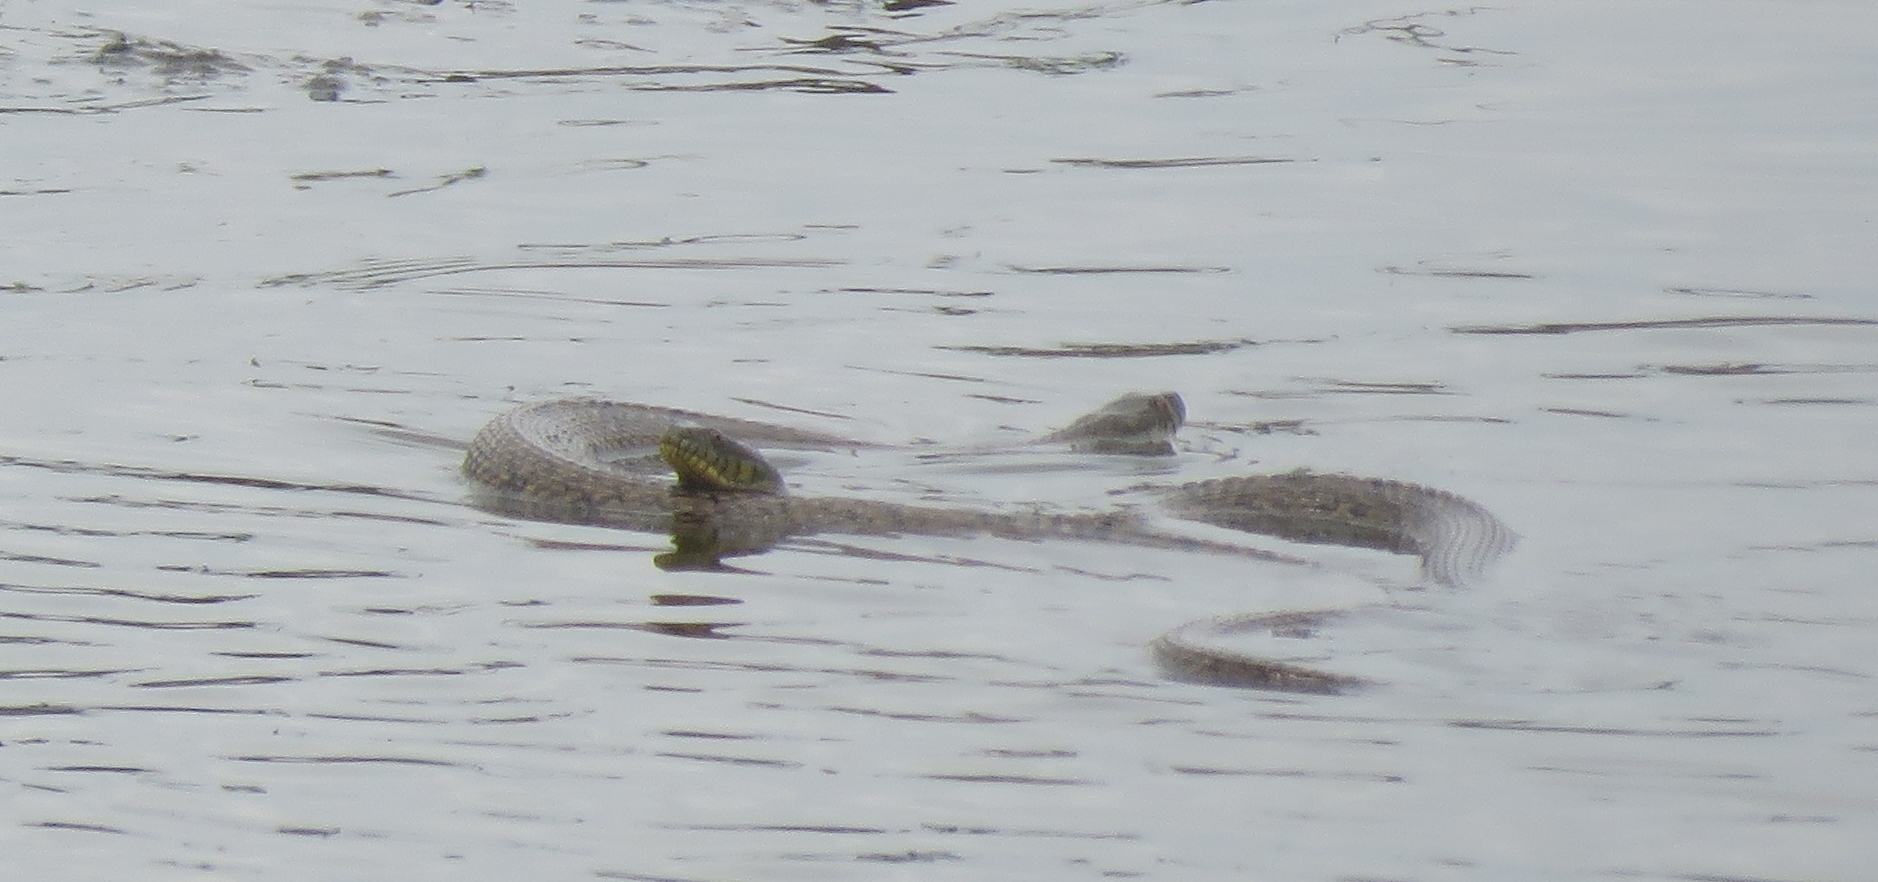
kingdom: Animalia
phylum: Chordata
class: Squamata
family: Colubridae
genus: Nerodia
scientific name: Nerodia rhombifer
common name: Diamondback water snake
